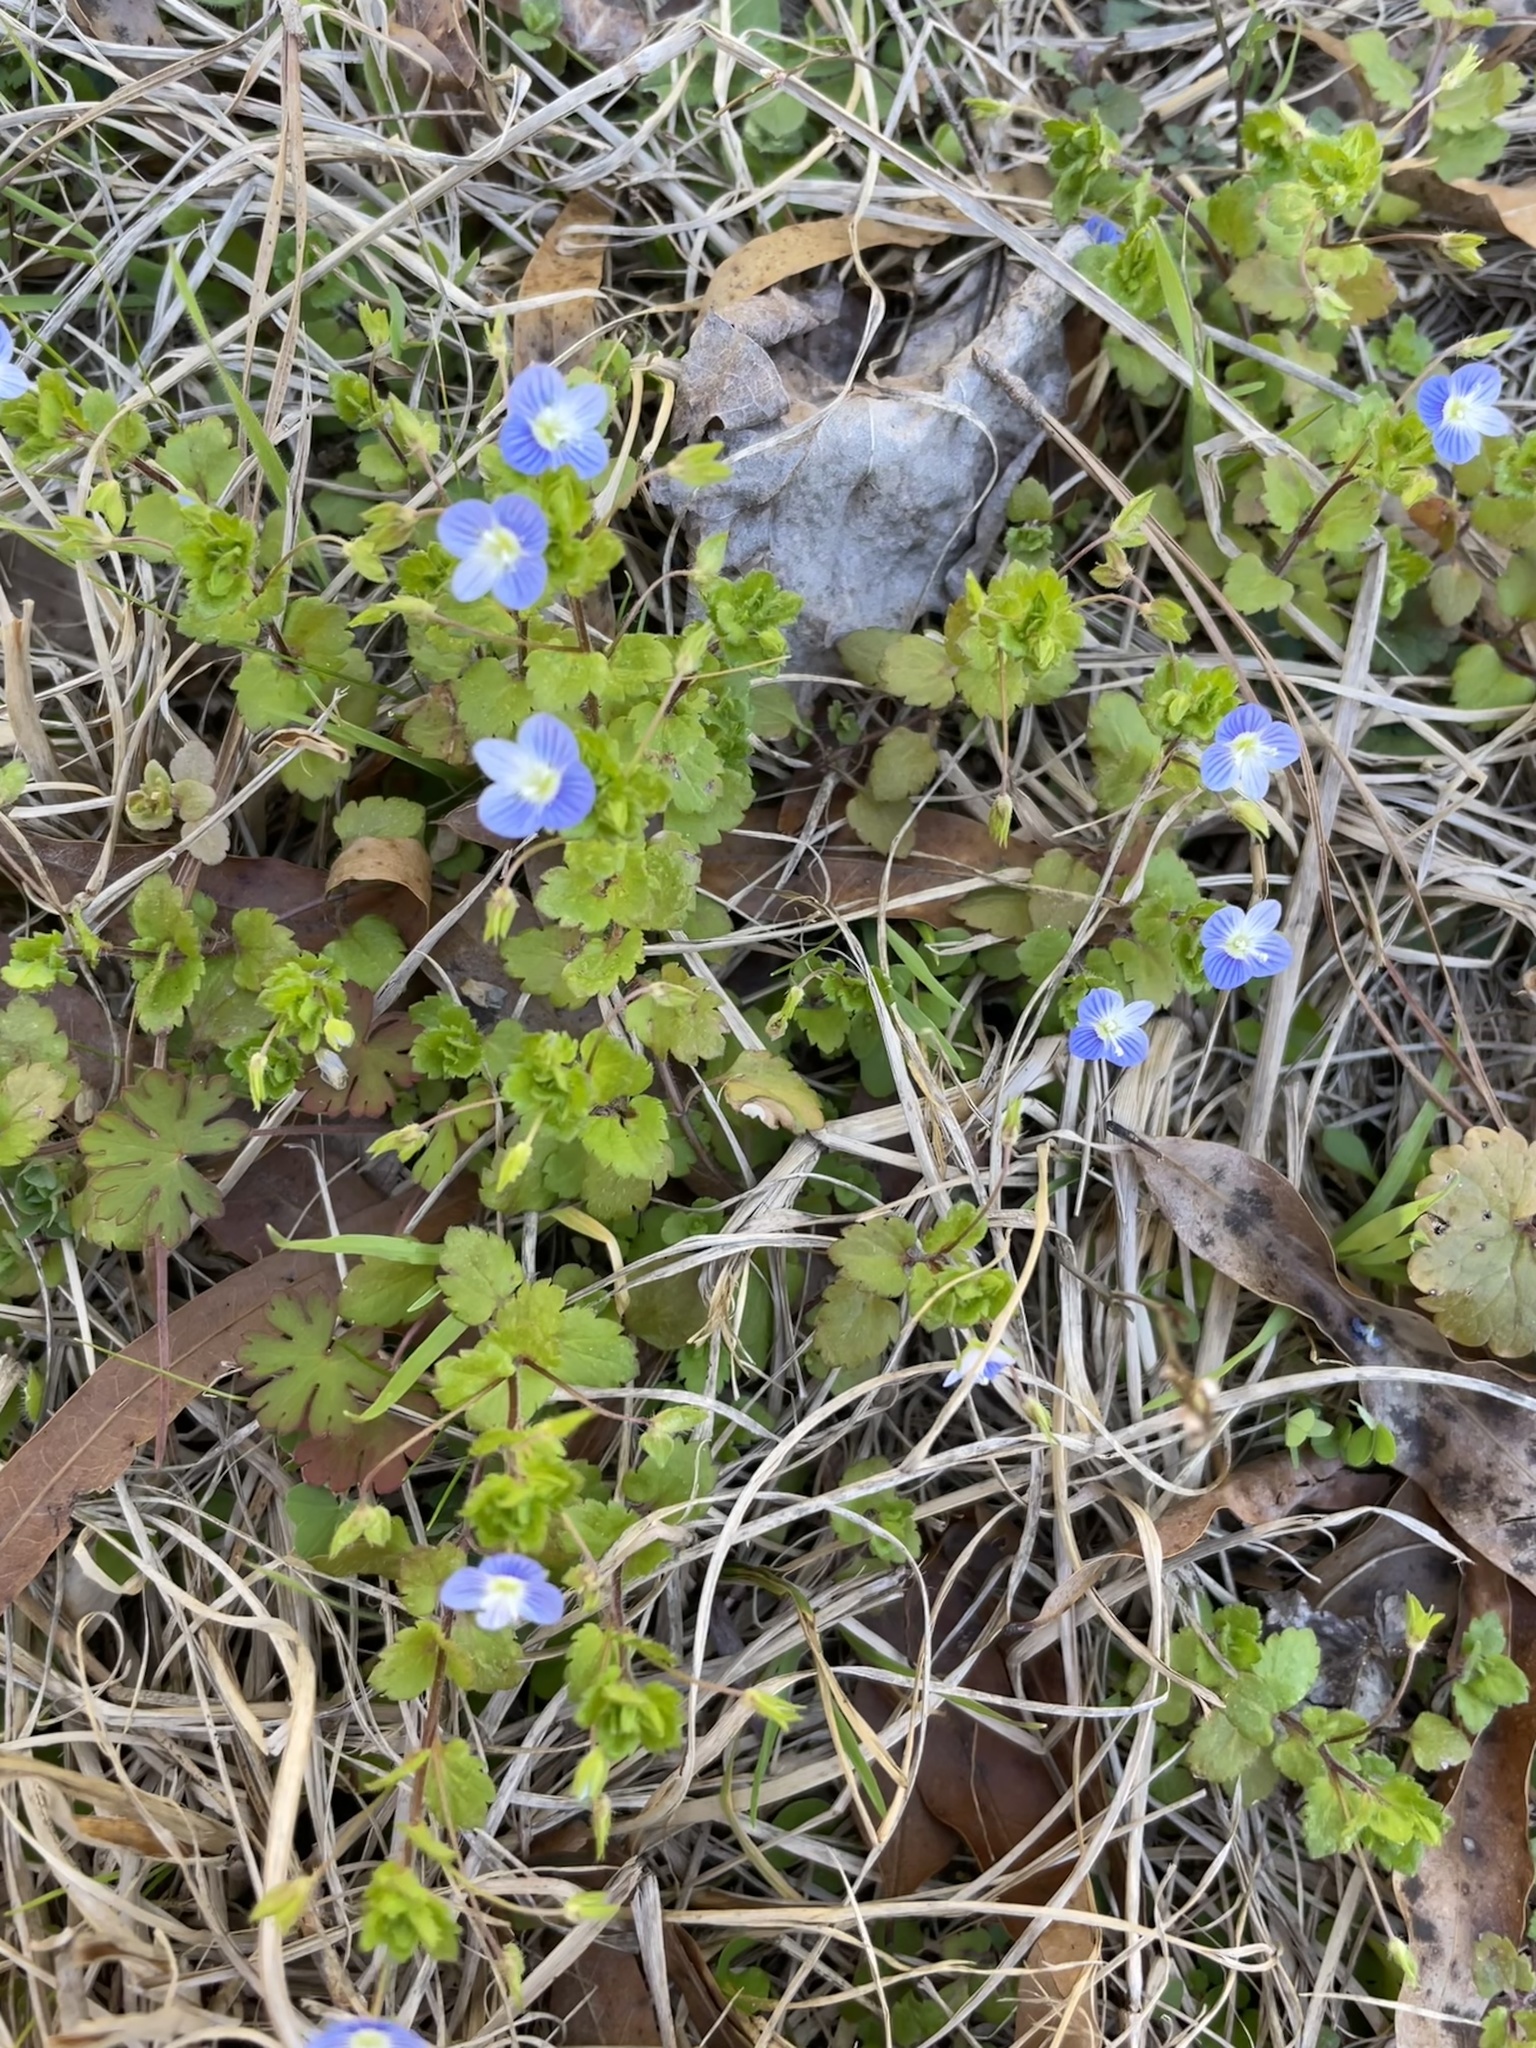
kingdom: Plantae
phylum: Tracheophyta
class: Magnoliopsida
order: Lamiales
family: Plantaginaceae
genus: Veronica
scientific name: Veronica persica
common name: Common field-speedwell
